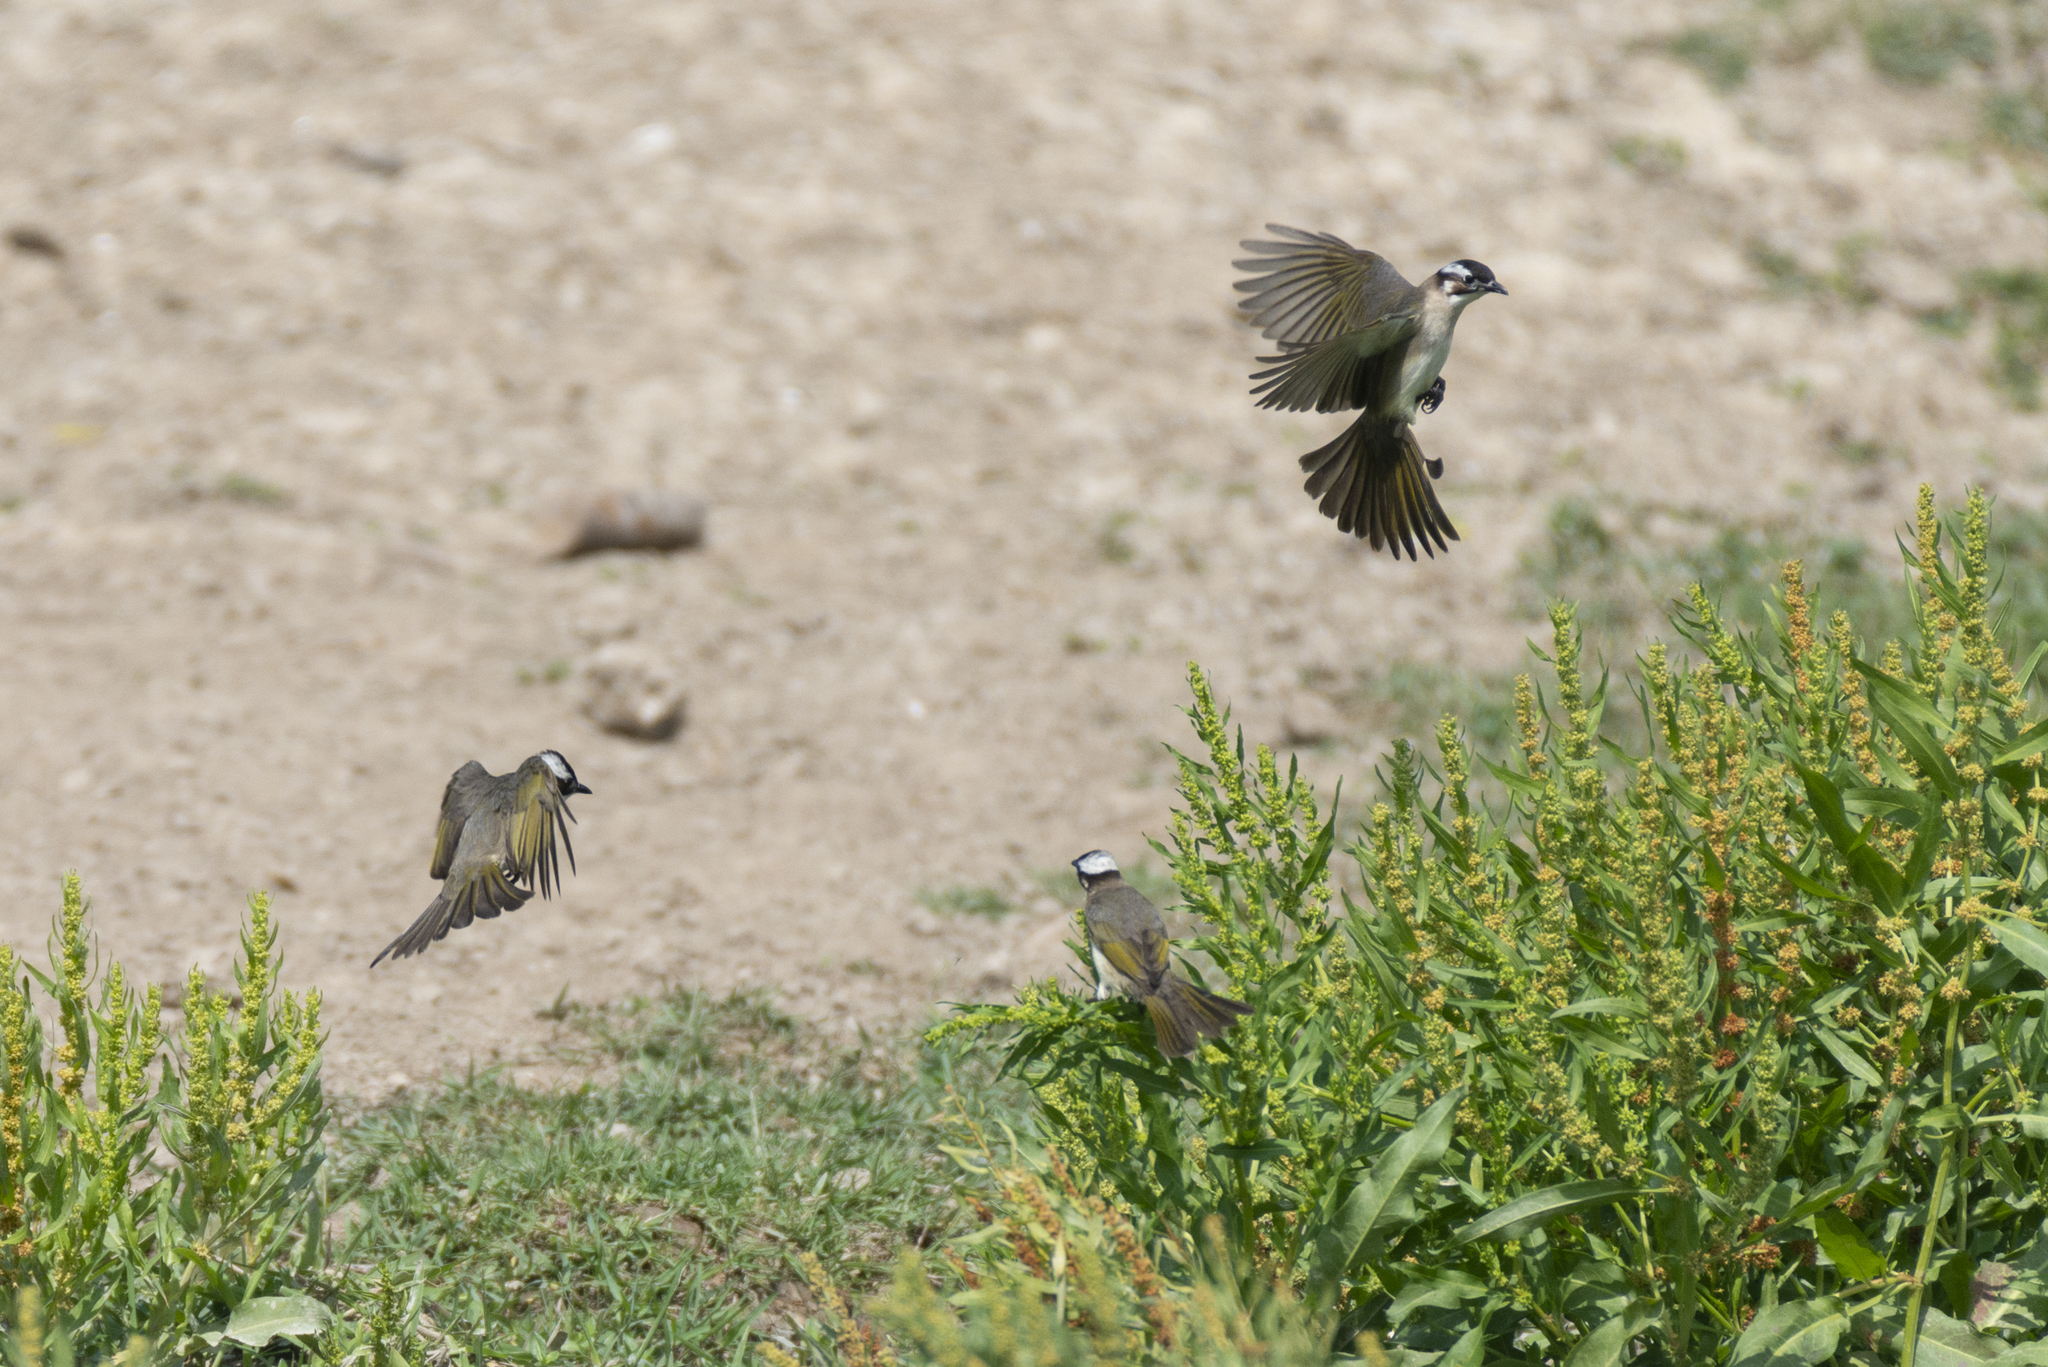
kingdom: Animalia
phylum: Chordata
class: Aves
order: Passeriformes
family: Pycnonotidae
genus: Pycnonotus
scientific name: Pycnonotus sinensis
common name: Light-vented bulbul
